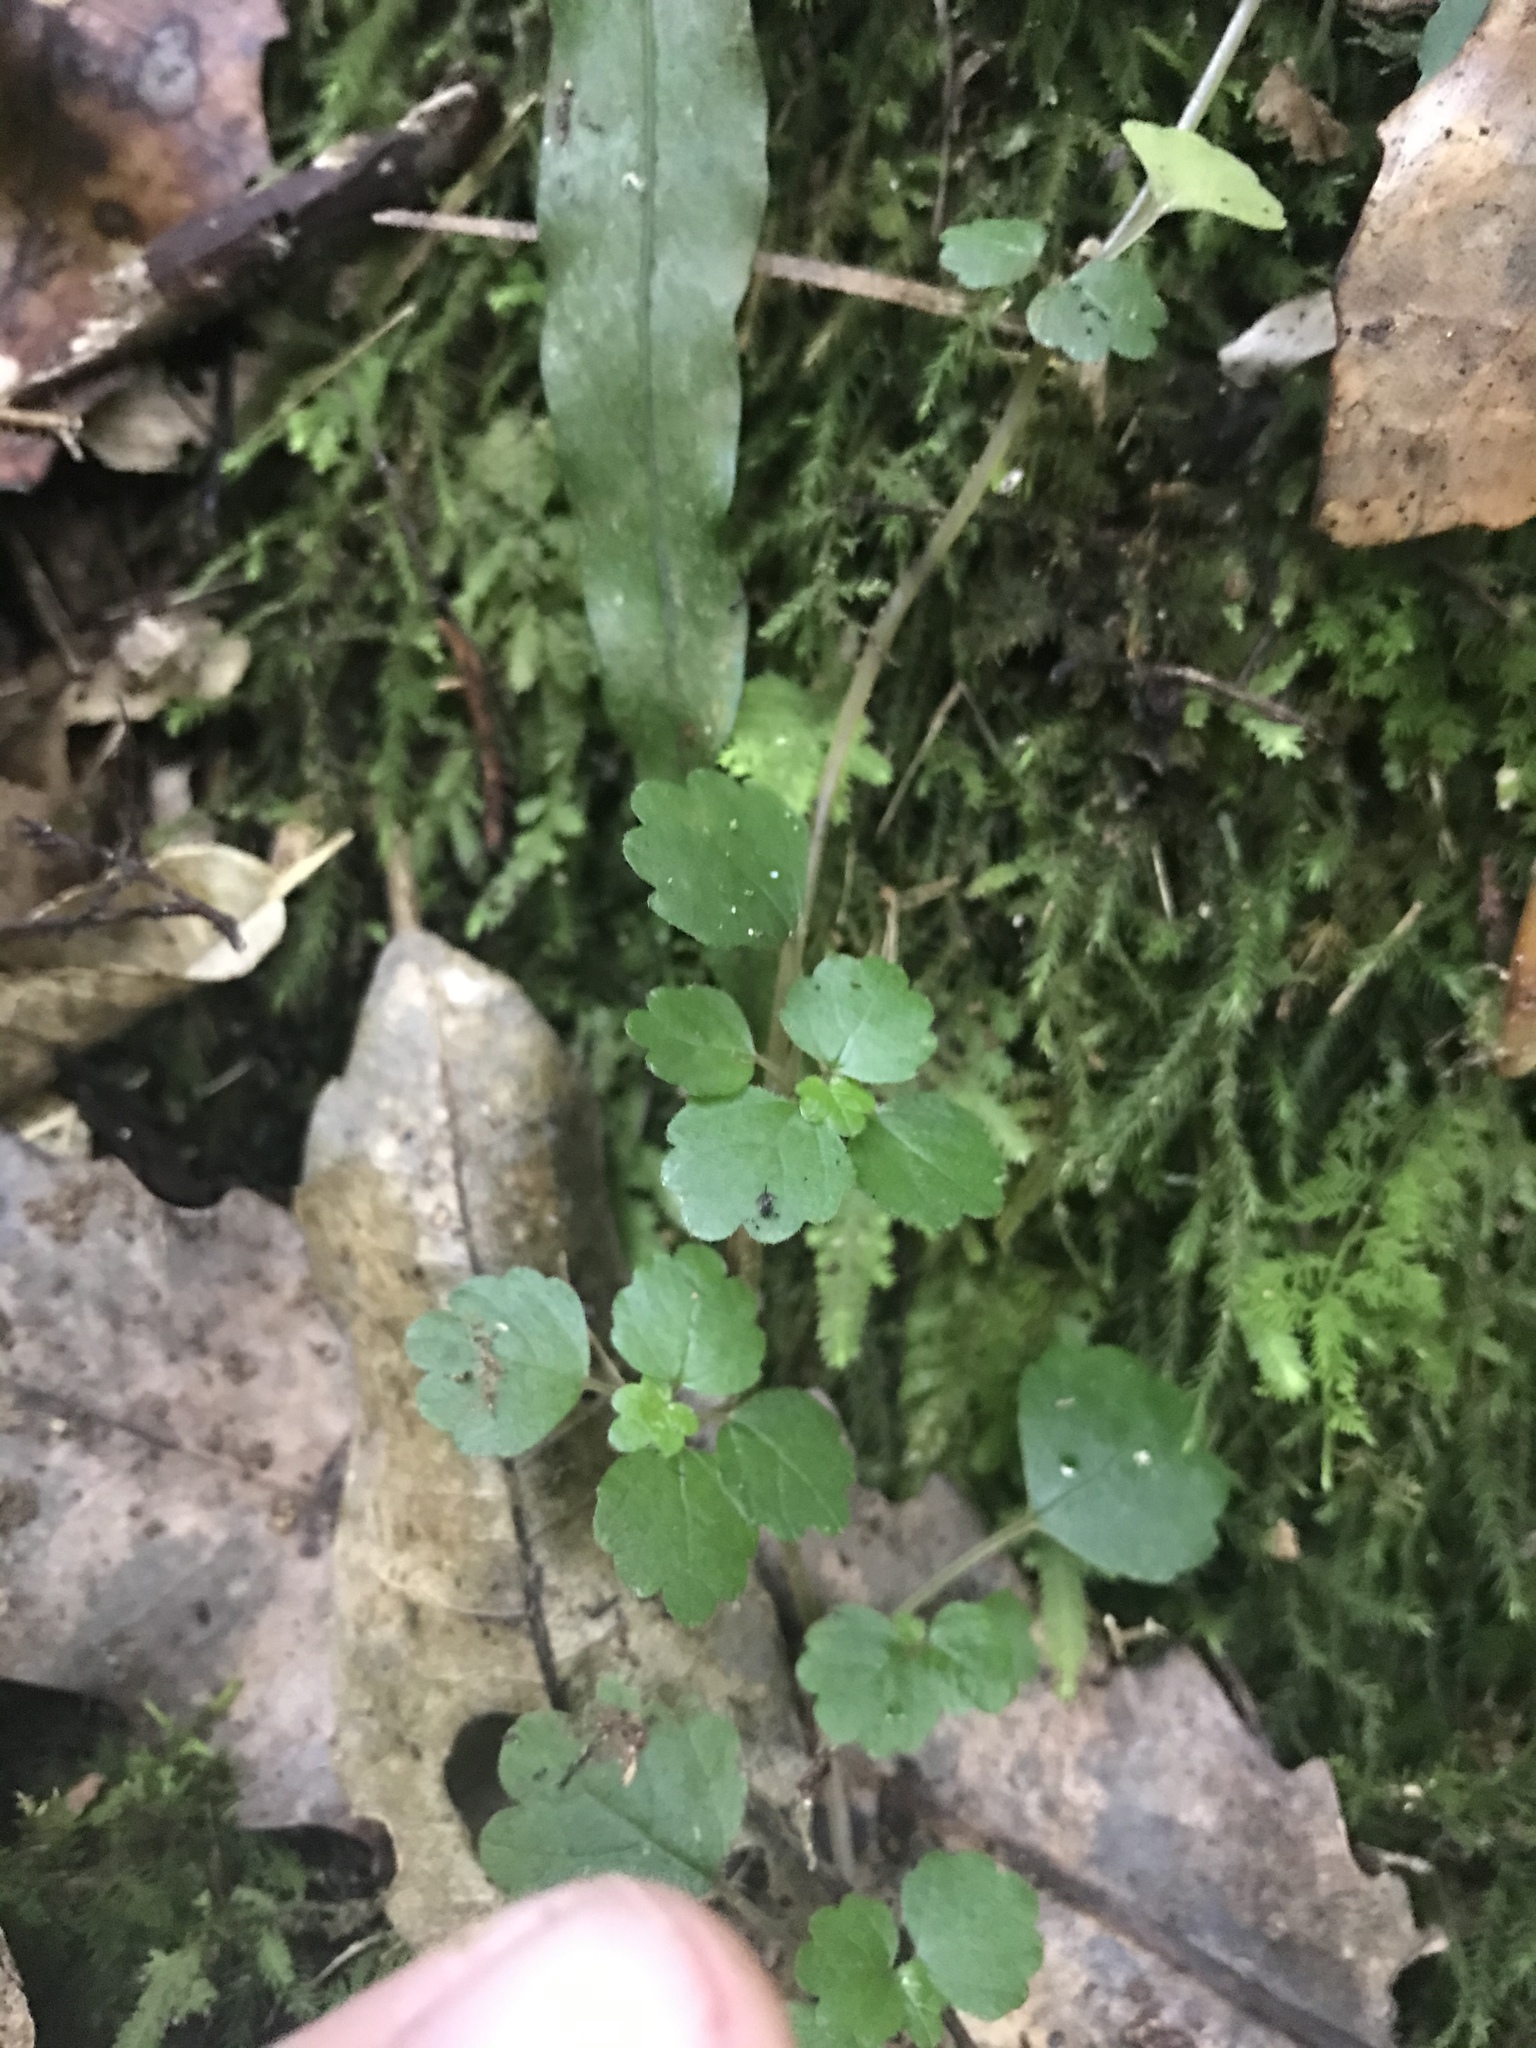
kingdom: Plantae
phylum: Tracheophyta
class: Magnoliopsida
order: Rosales
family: Urticaceae
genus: Australina
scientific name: Australina pusilla
